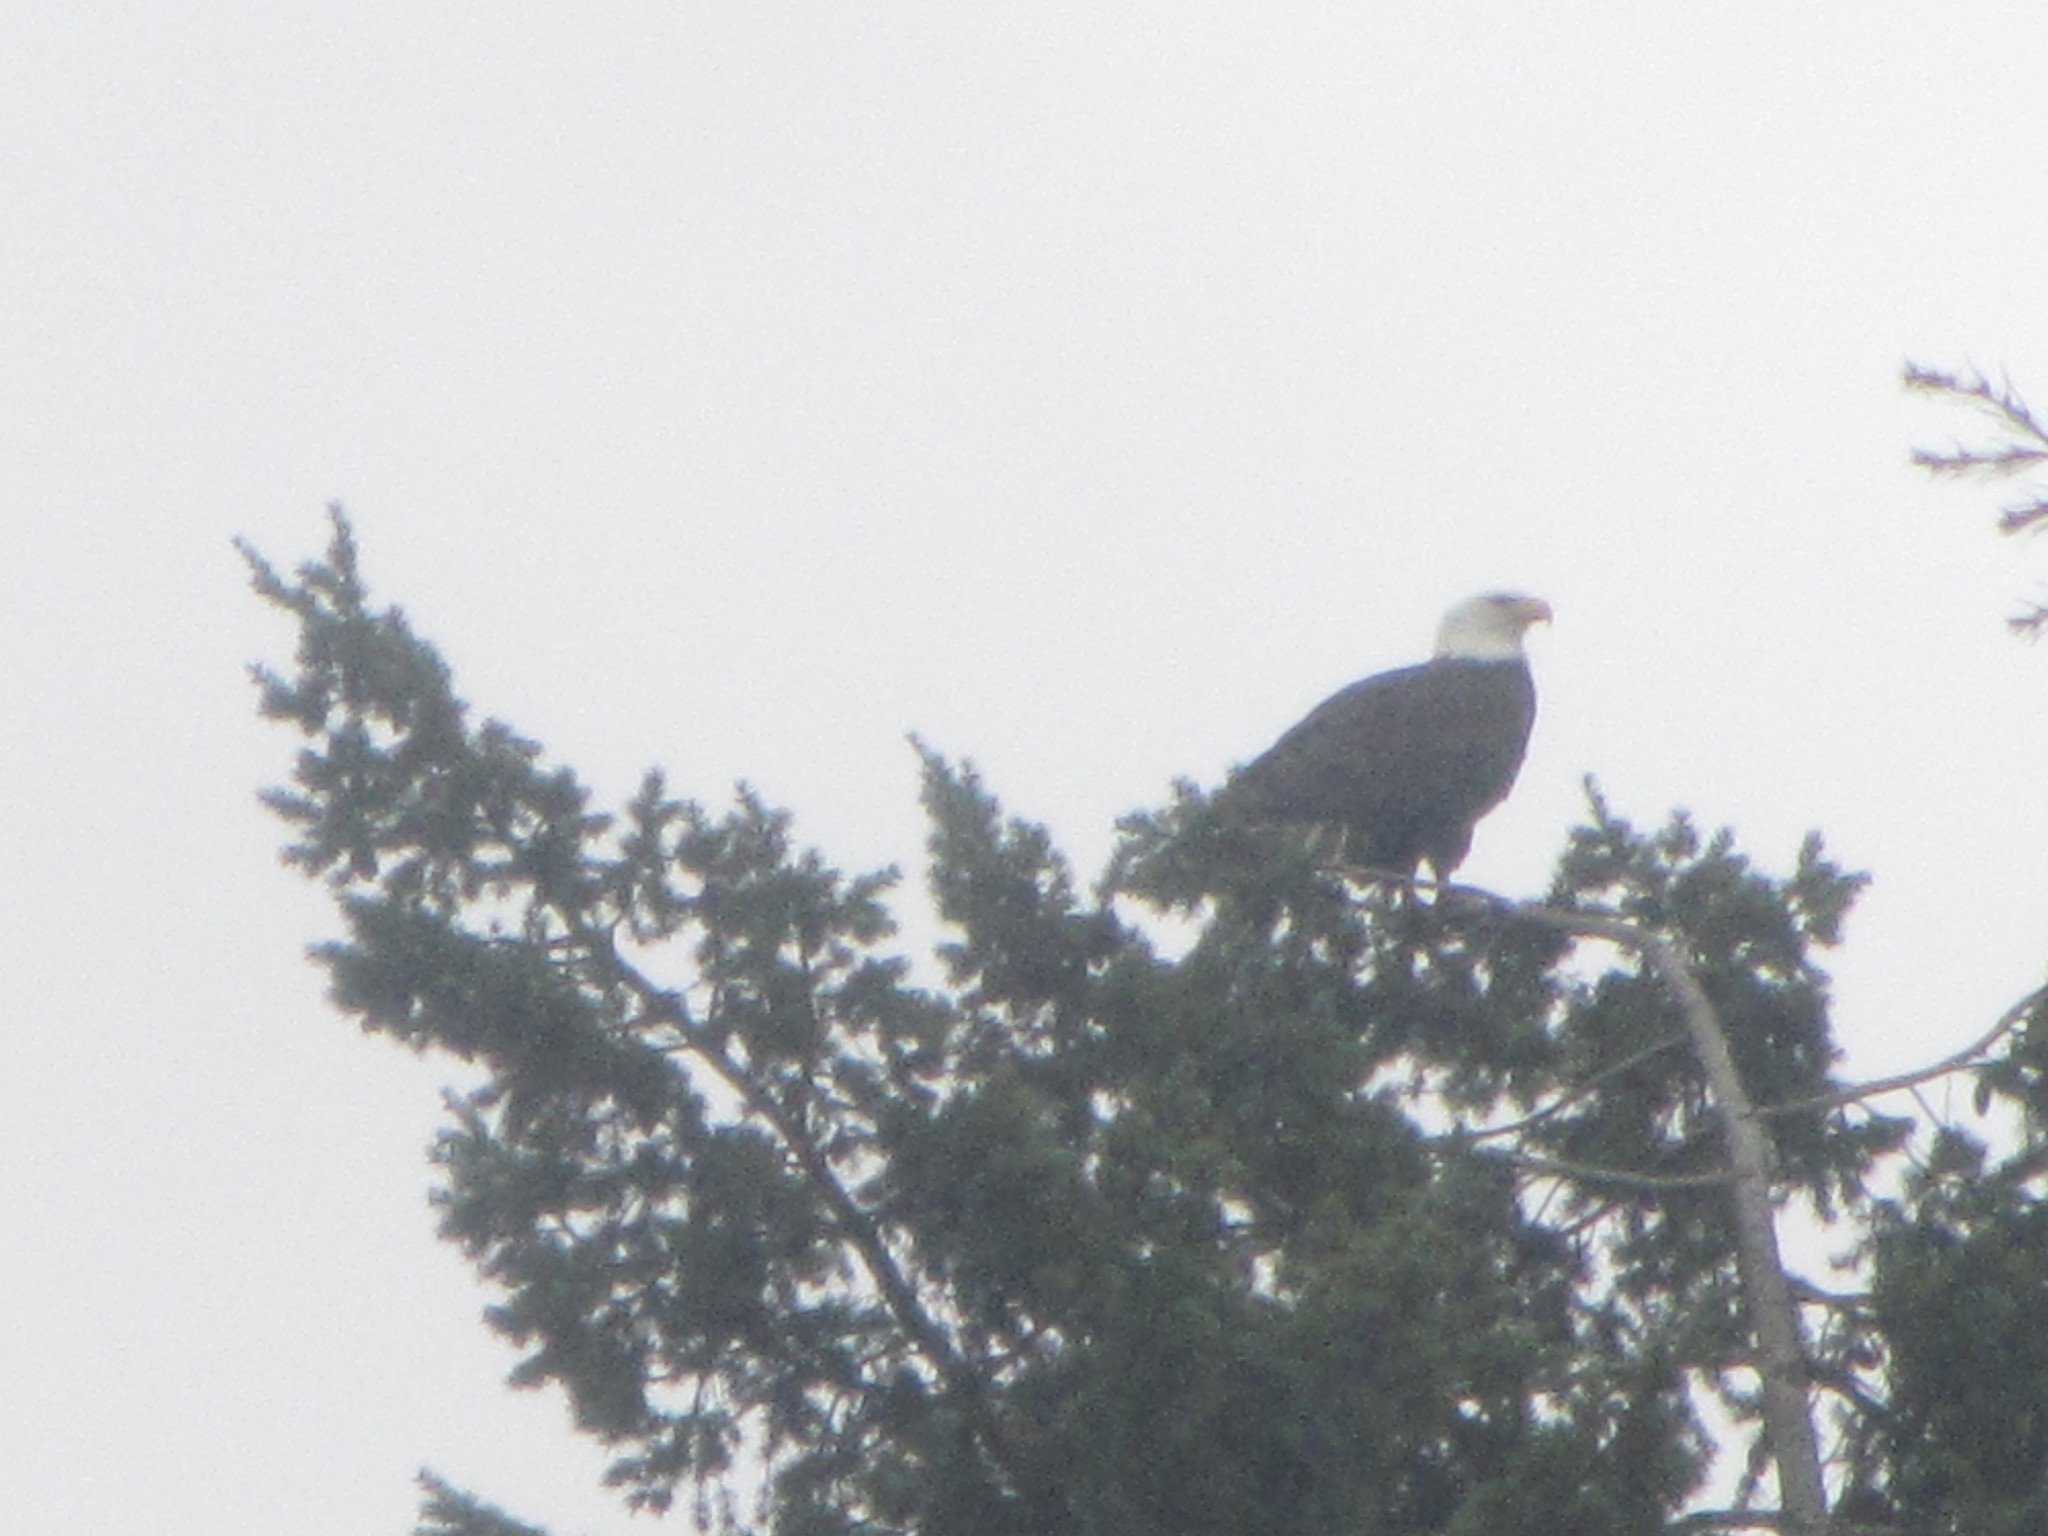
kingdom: Animalia
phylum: Chordata
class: Aves
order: Accipitriformes
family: Accipitridae
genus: Haliaeetus
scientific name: Haliaeetus leucocephalus
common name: Bald eagle
